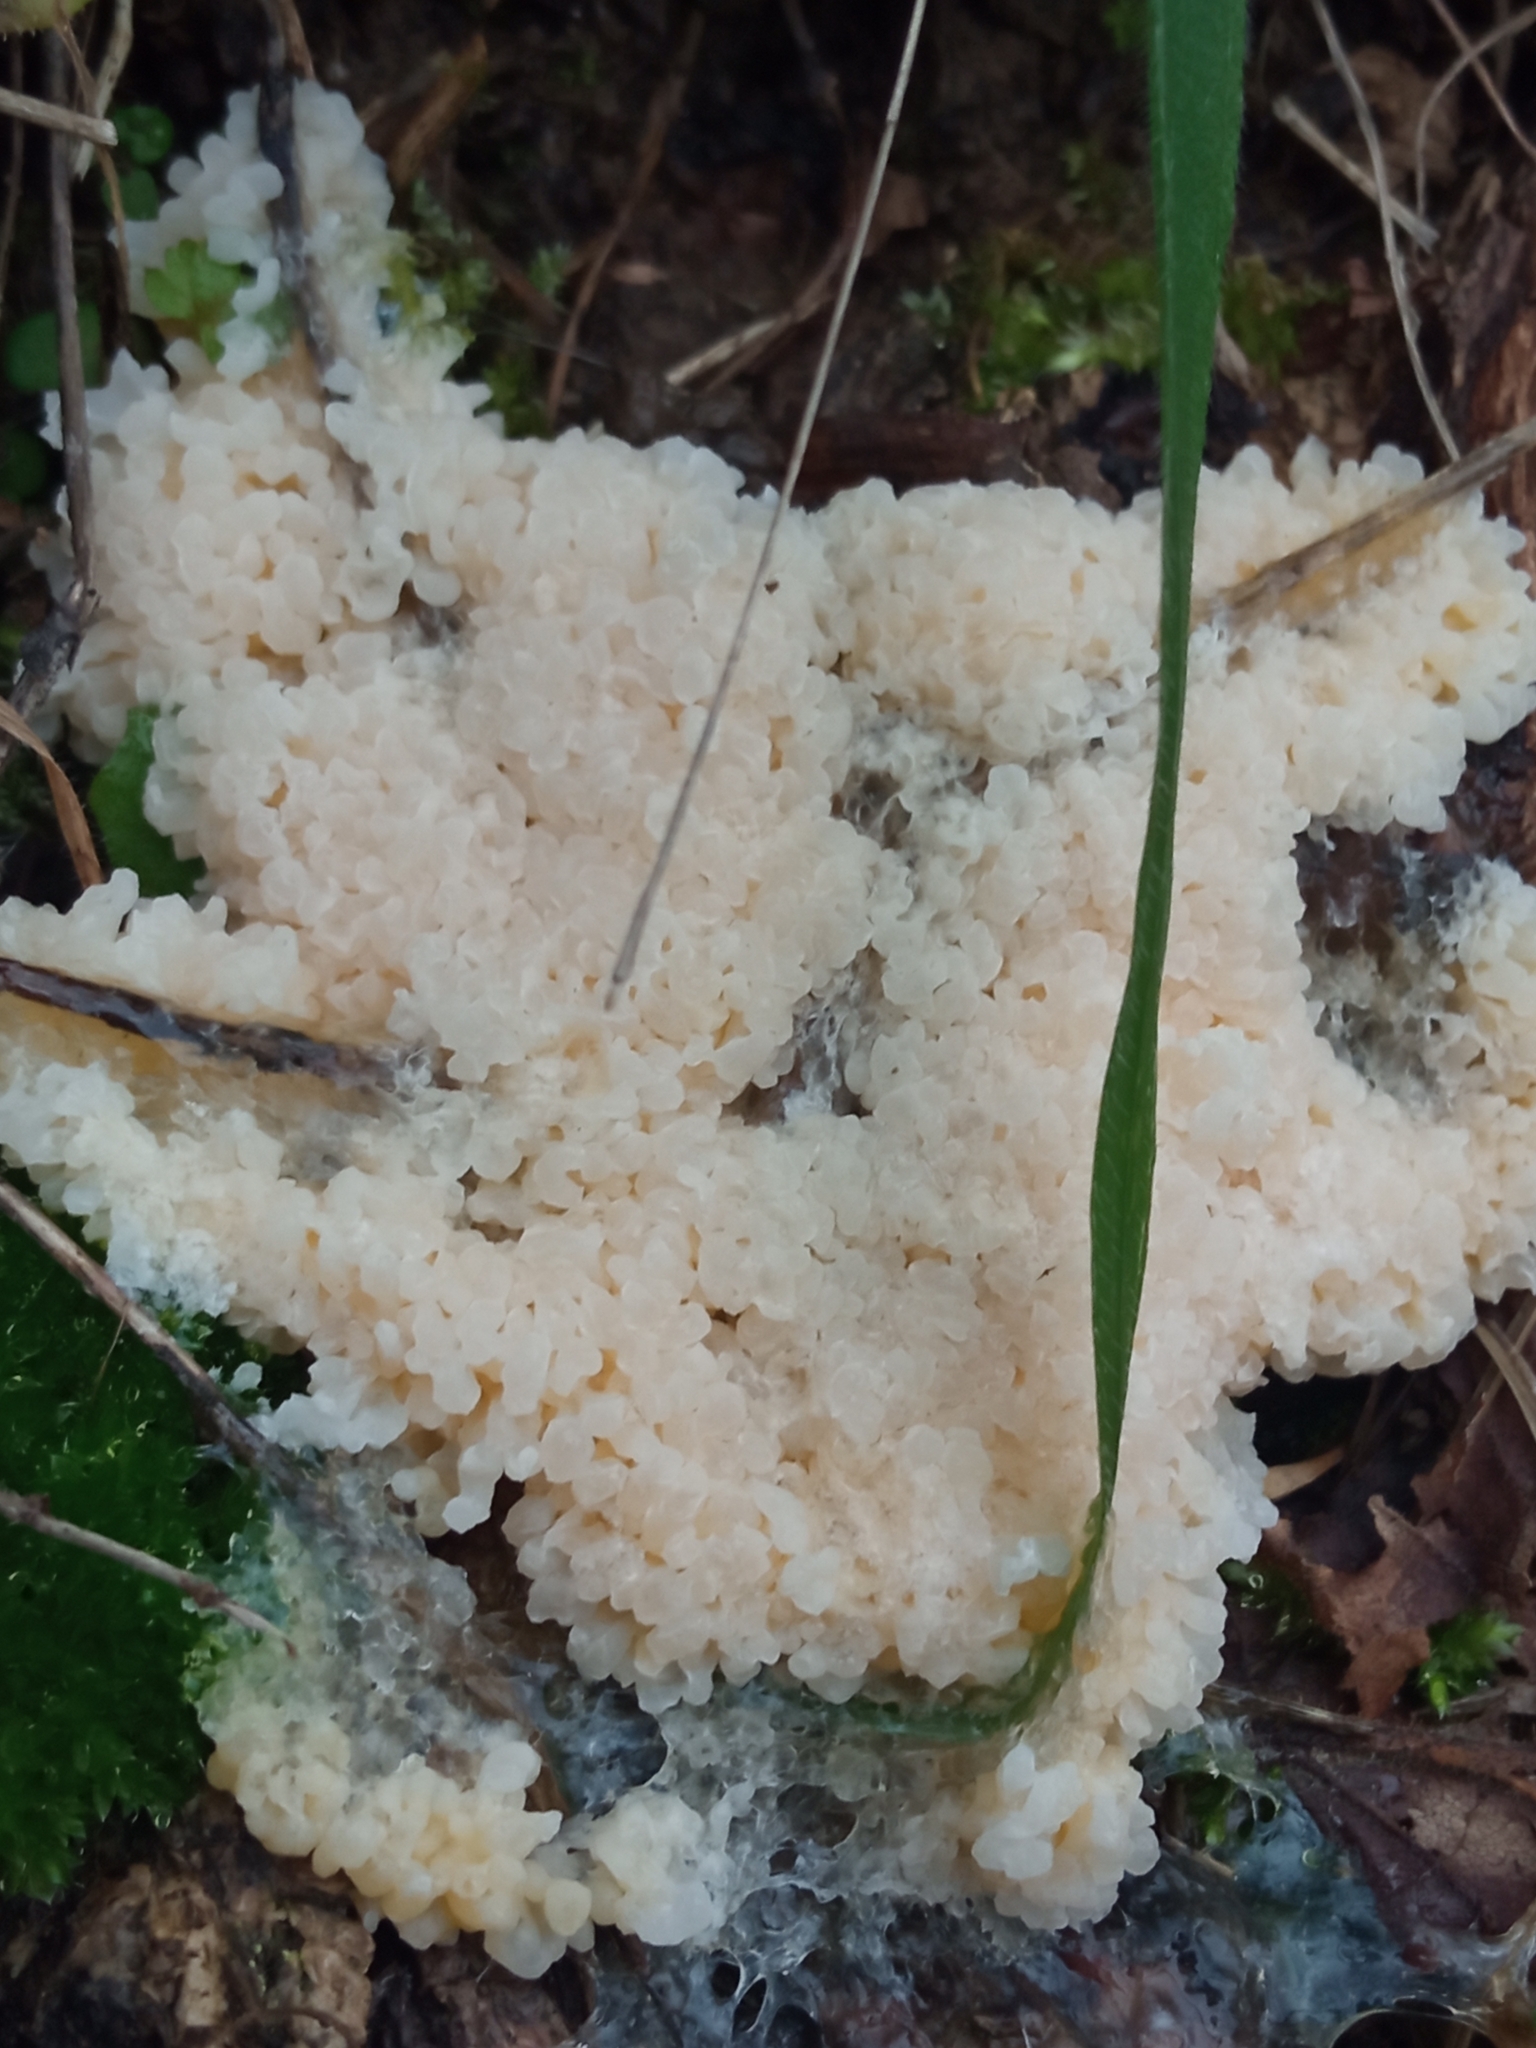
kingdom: Protozoa
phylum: Mycetozoa
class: Myxomycetes
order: Physarales
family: Physaraceae
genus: Didymium
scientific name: Didymium
